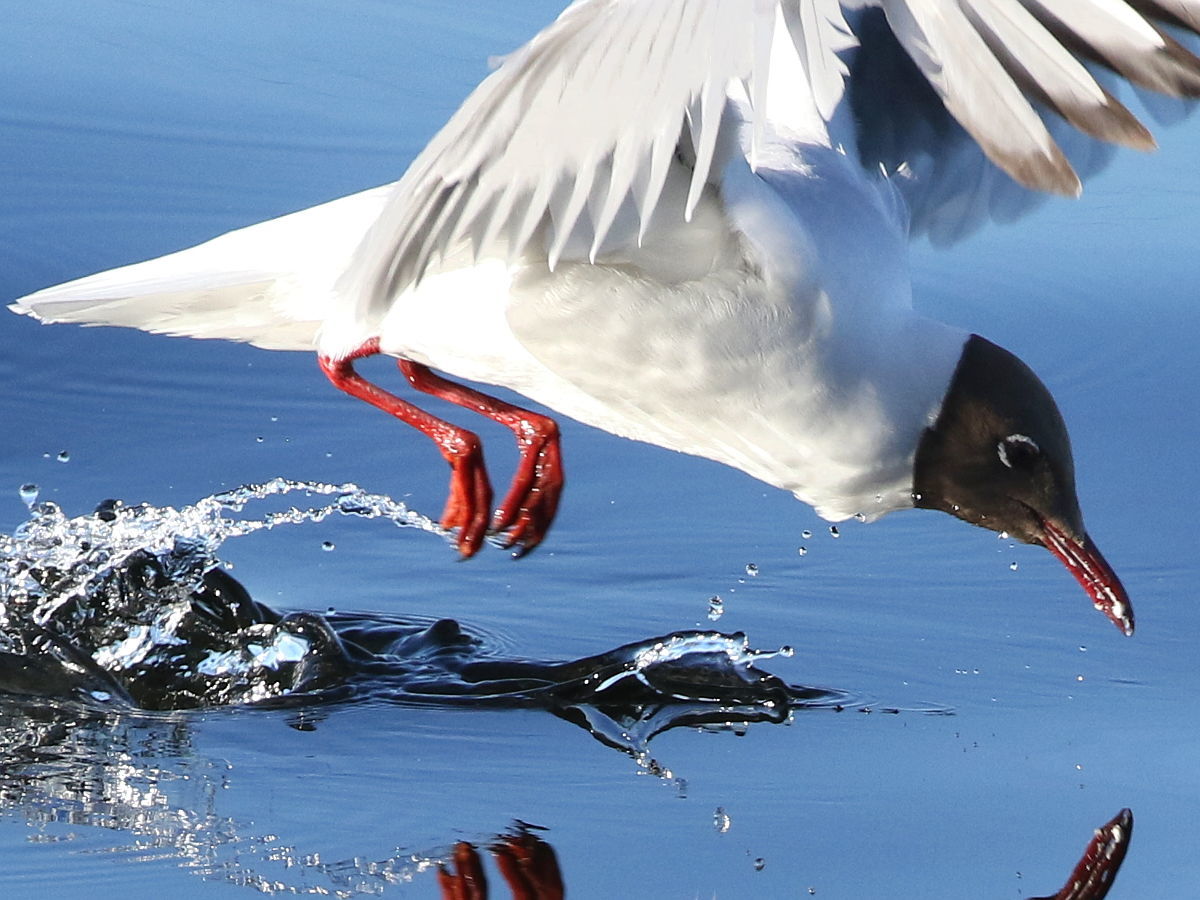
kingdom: Animalia
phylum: Chordata
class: Aves
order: Charadriiformes
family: Laridae
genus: Chroicocephalus
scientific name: Chroicocephalus ridibundus
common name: Black-headed gull
